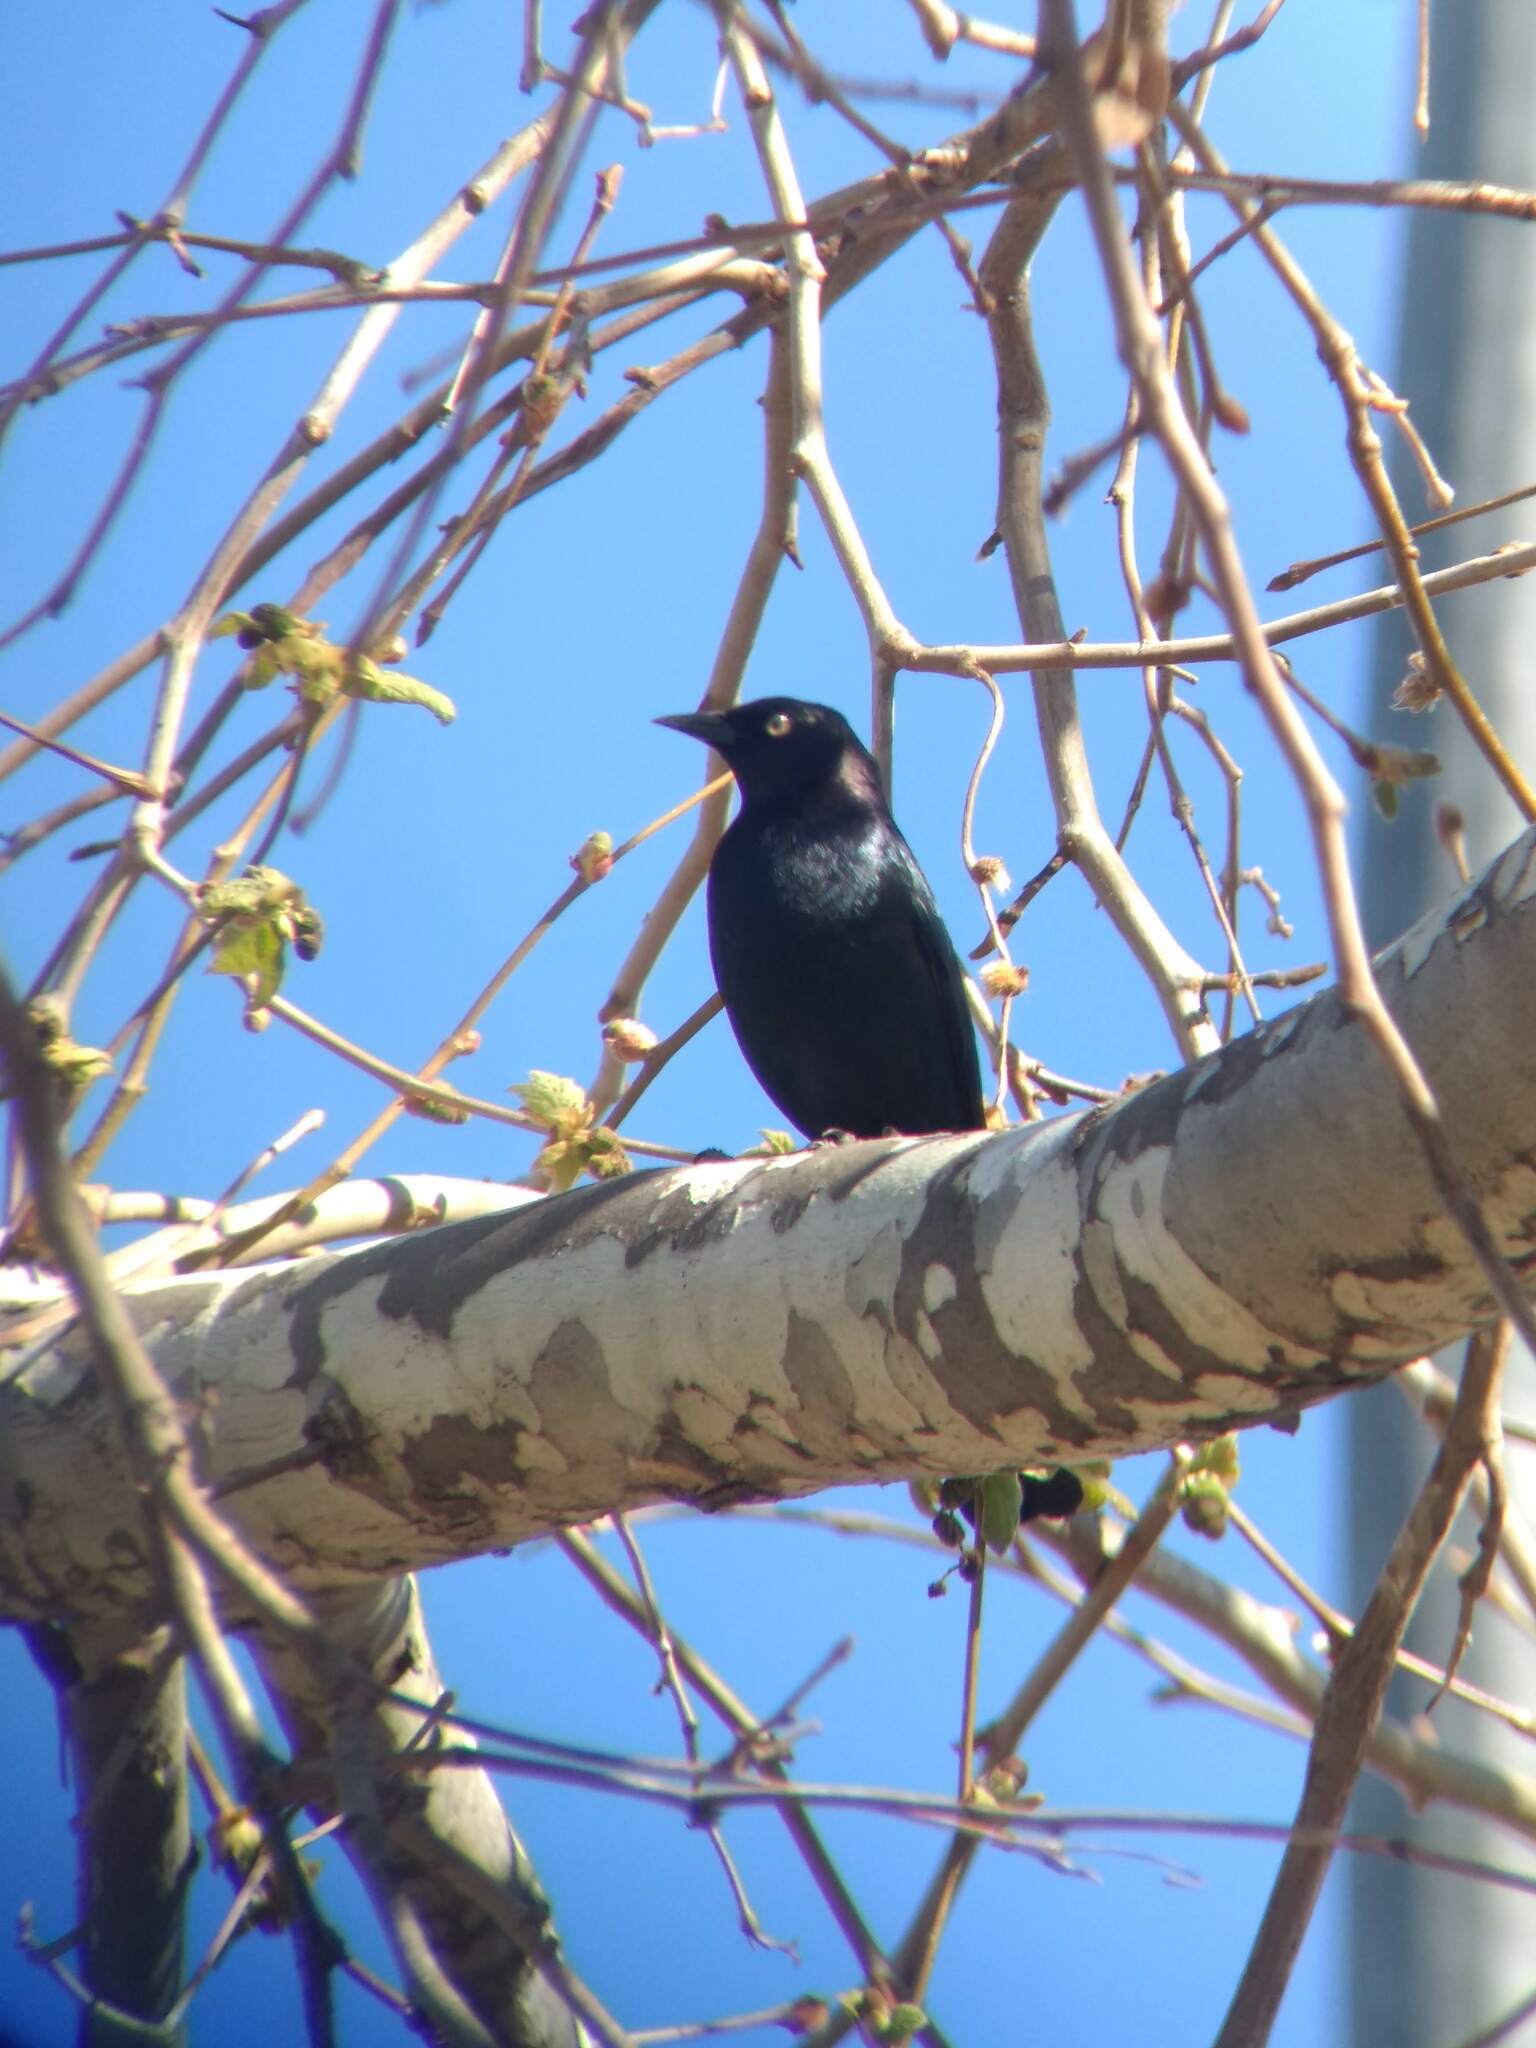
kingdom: Animalia
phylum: Chordata
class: Aves
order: Passeriformes
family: Icteridae
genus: Euphagus
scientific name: Euphagus cyanocephalus
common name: Brewer's blackbird
